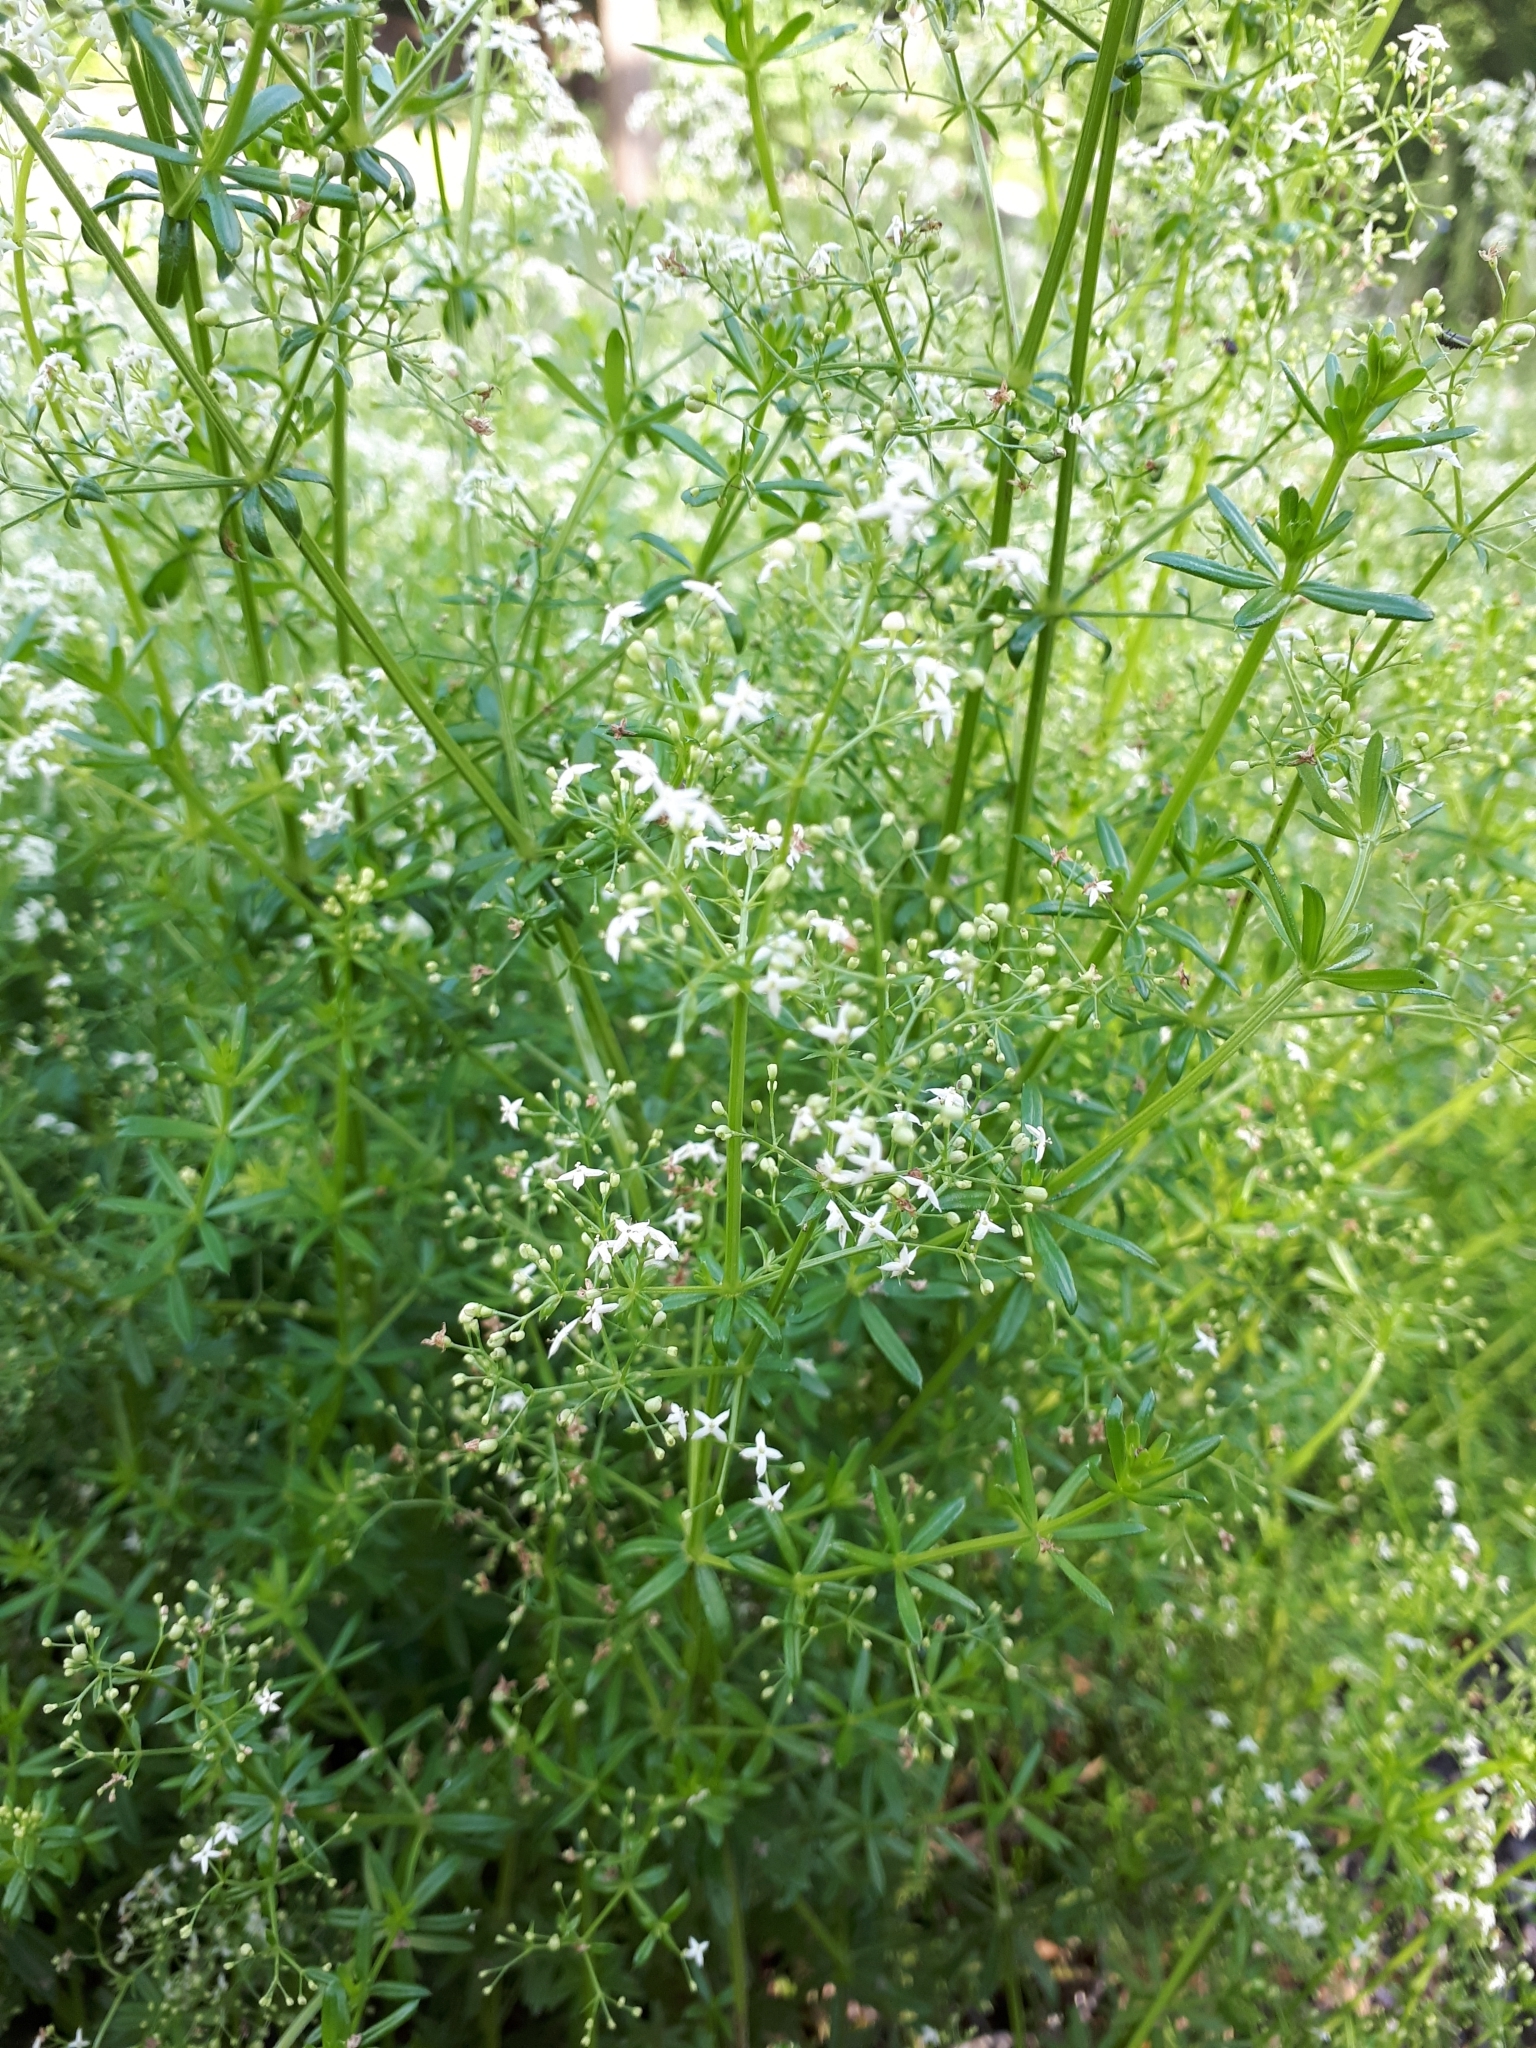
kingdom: Plantae
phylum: Tracheophyta
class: Magnoliopsida
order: Gentianales
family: Rubiaceae
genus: Galium
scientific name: Galium mollugo
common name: Hedge bedstraw
